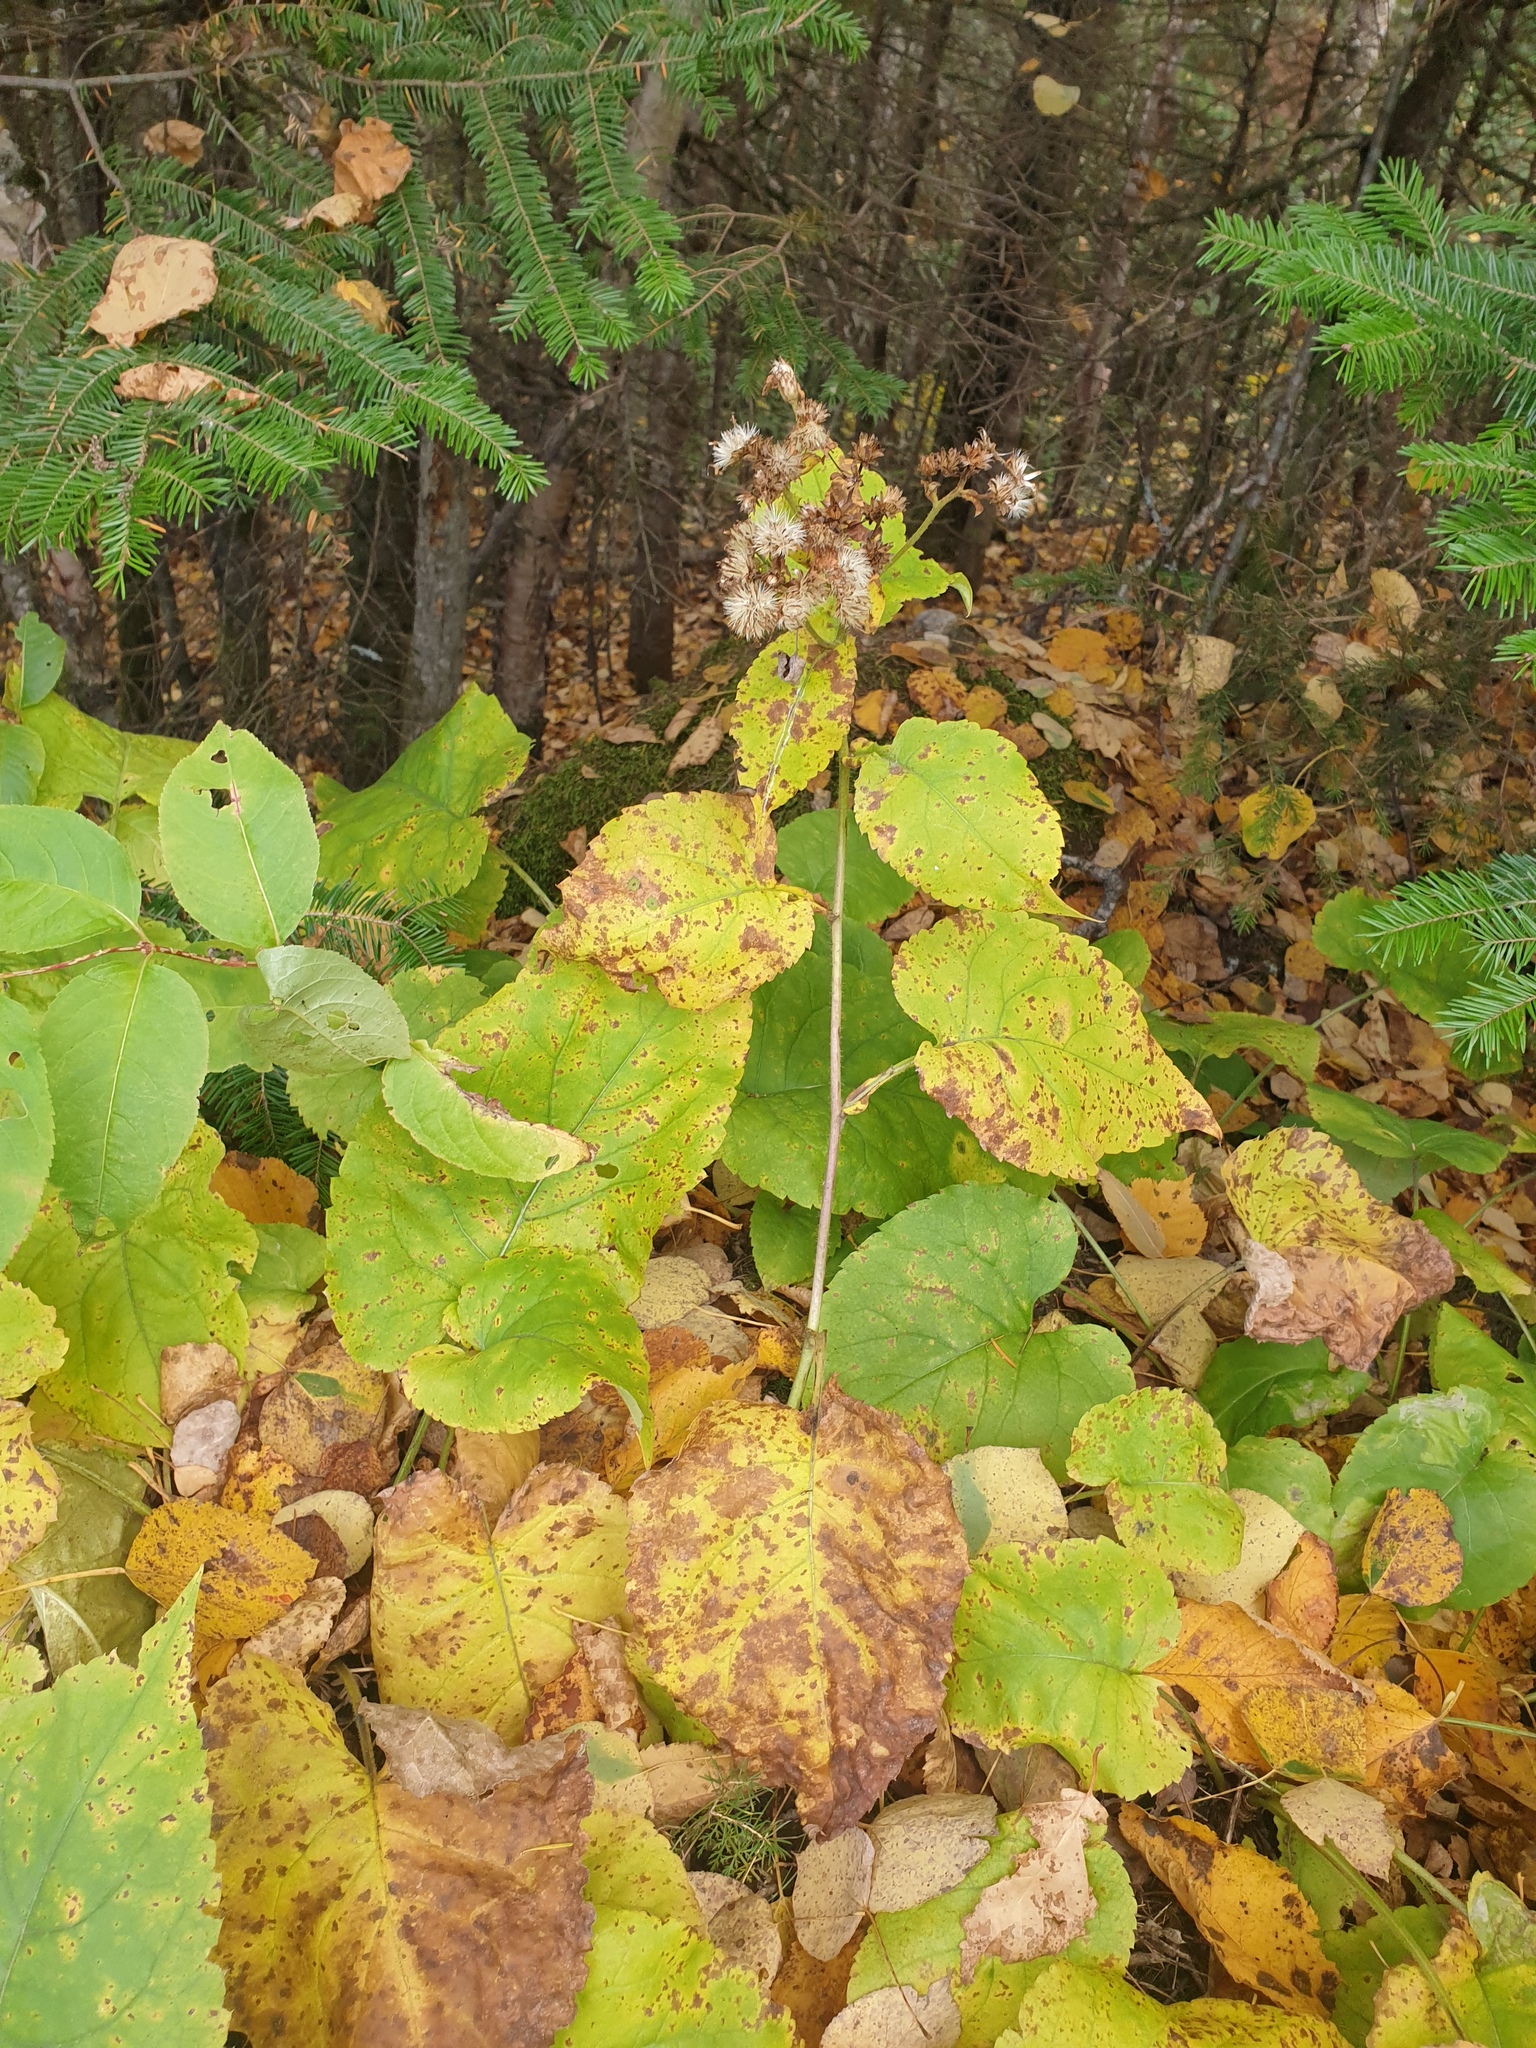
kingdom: Plantae
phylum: Tracheophyta
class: Magnoliopsida
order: Asterales
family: Asteraceae
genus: Eurybia
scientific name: Eurybia macrophylla
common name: Big-leaved aster
